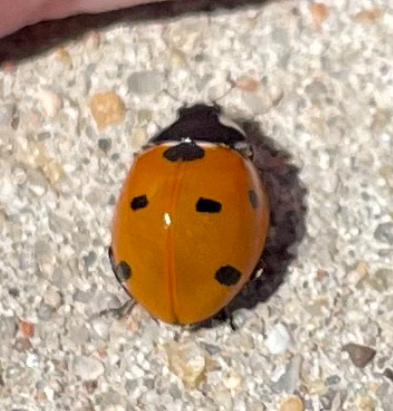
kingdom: Animalia
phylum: Arthropoda
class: Insecta
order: Coleoptera
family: Coccinellidae
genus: Coccinella
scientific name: Coccinella septempunctata
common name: Sevenspotted lady beetle
